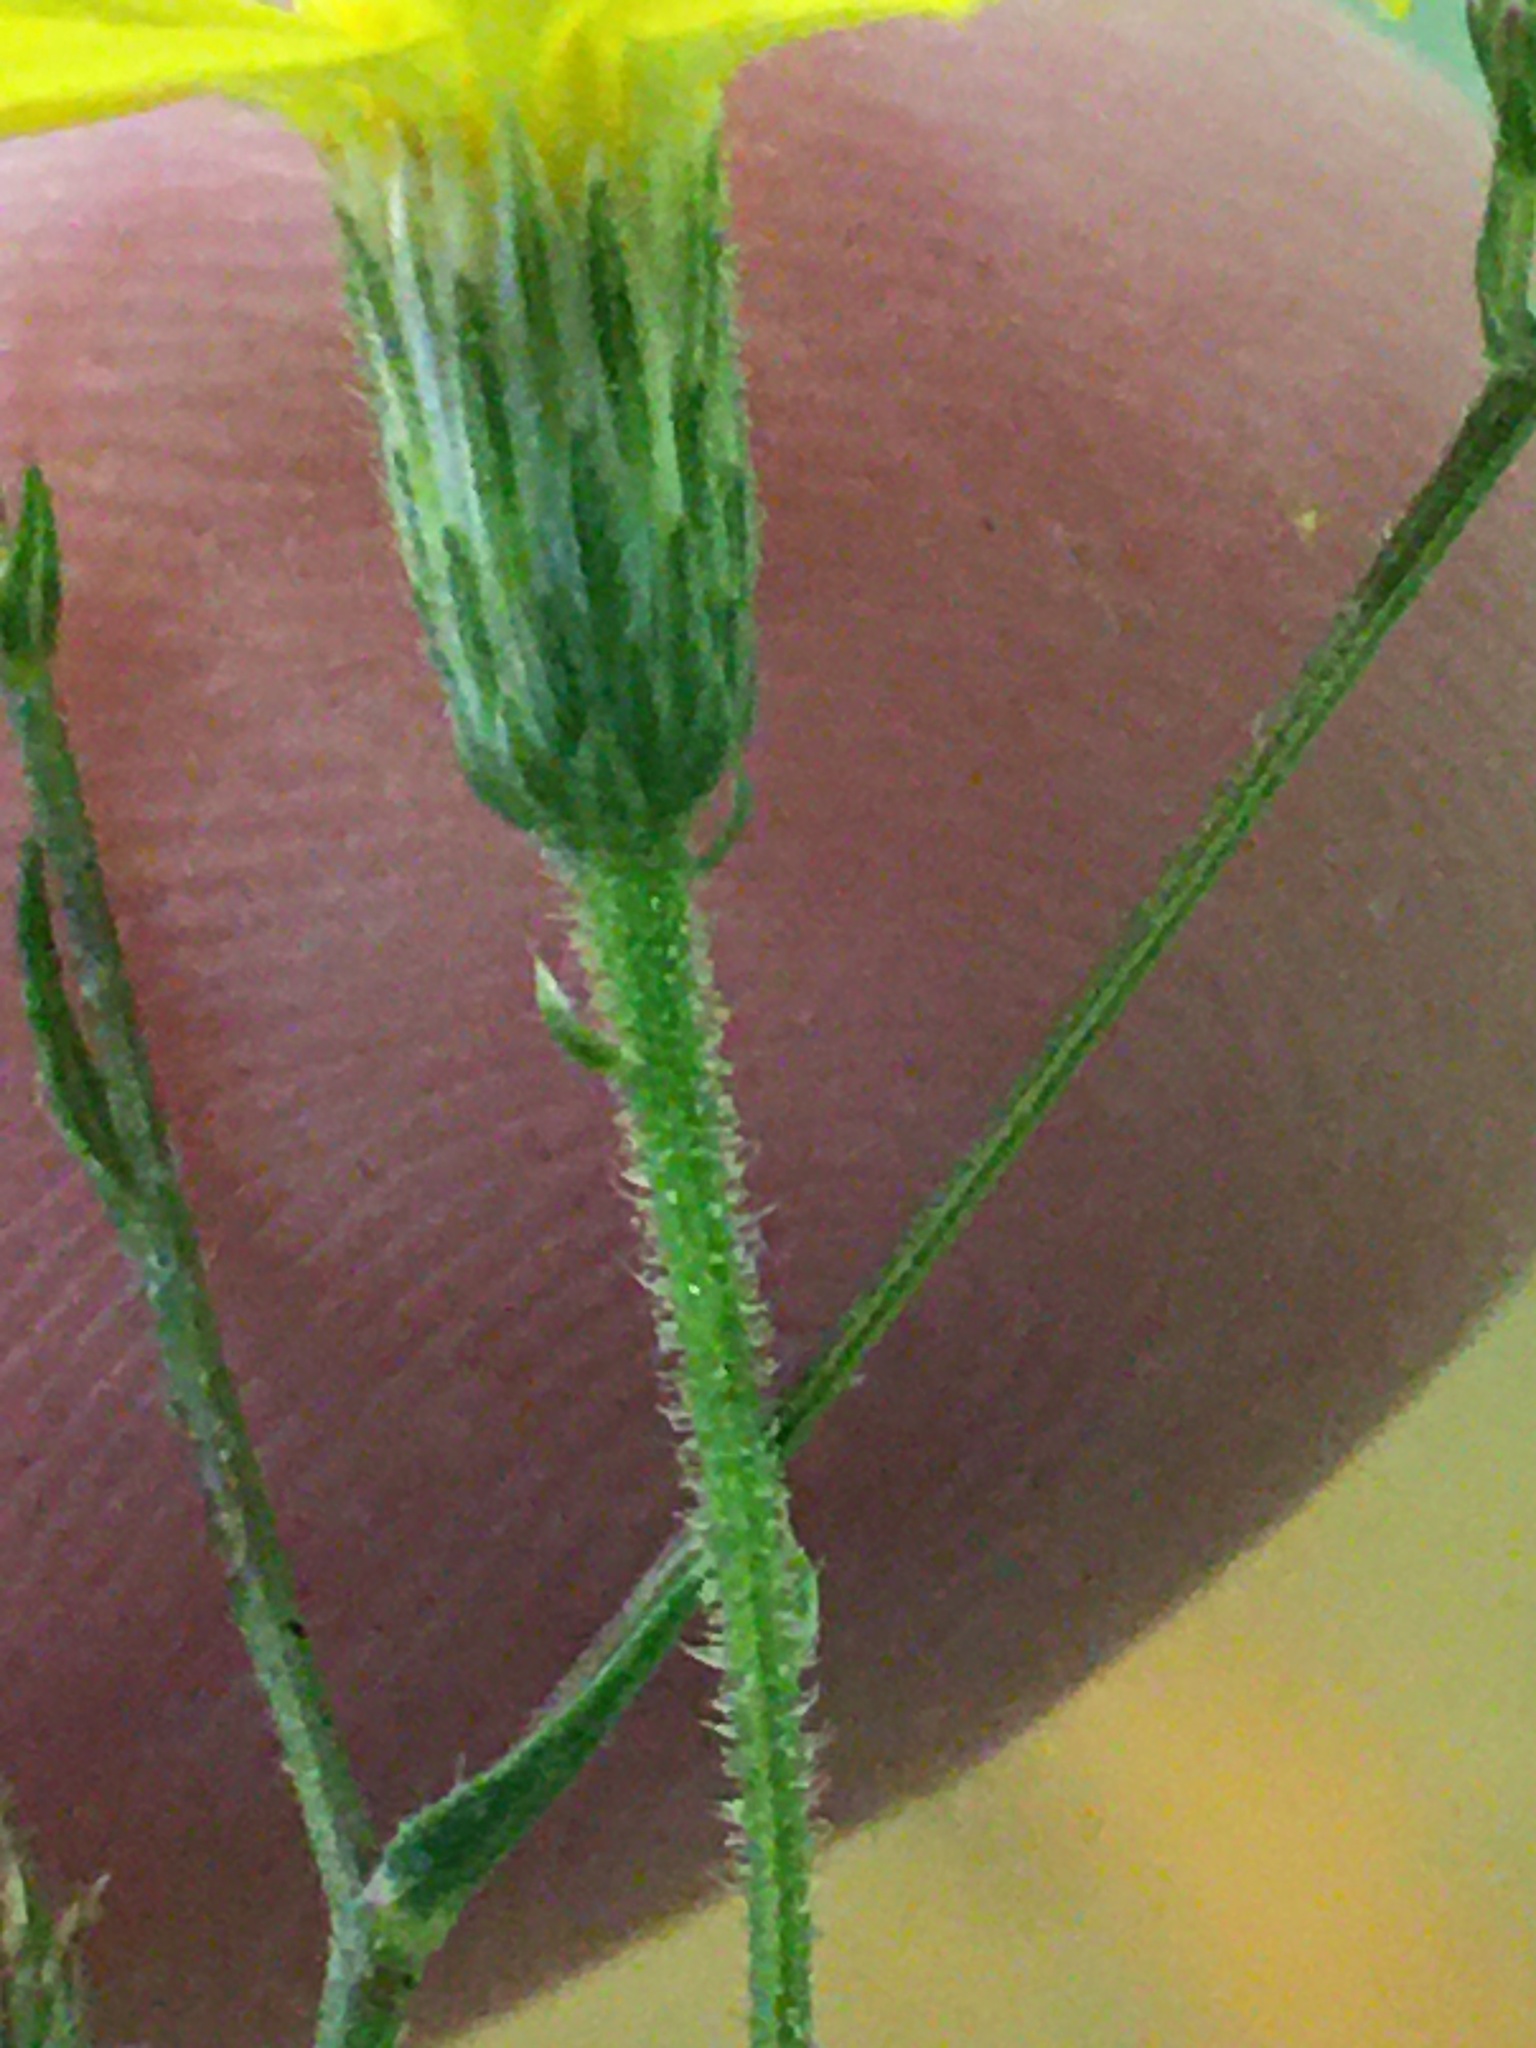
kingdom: Plantae
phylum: Tracheophyta
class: Magnoliopsida
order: Asterales
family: Asteraceae
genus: Croptilon
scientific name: Croptilon divaricatum
